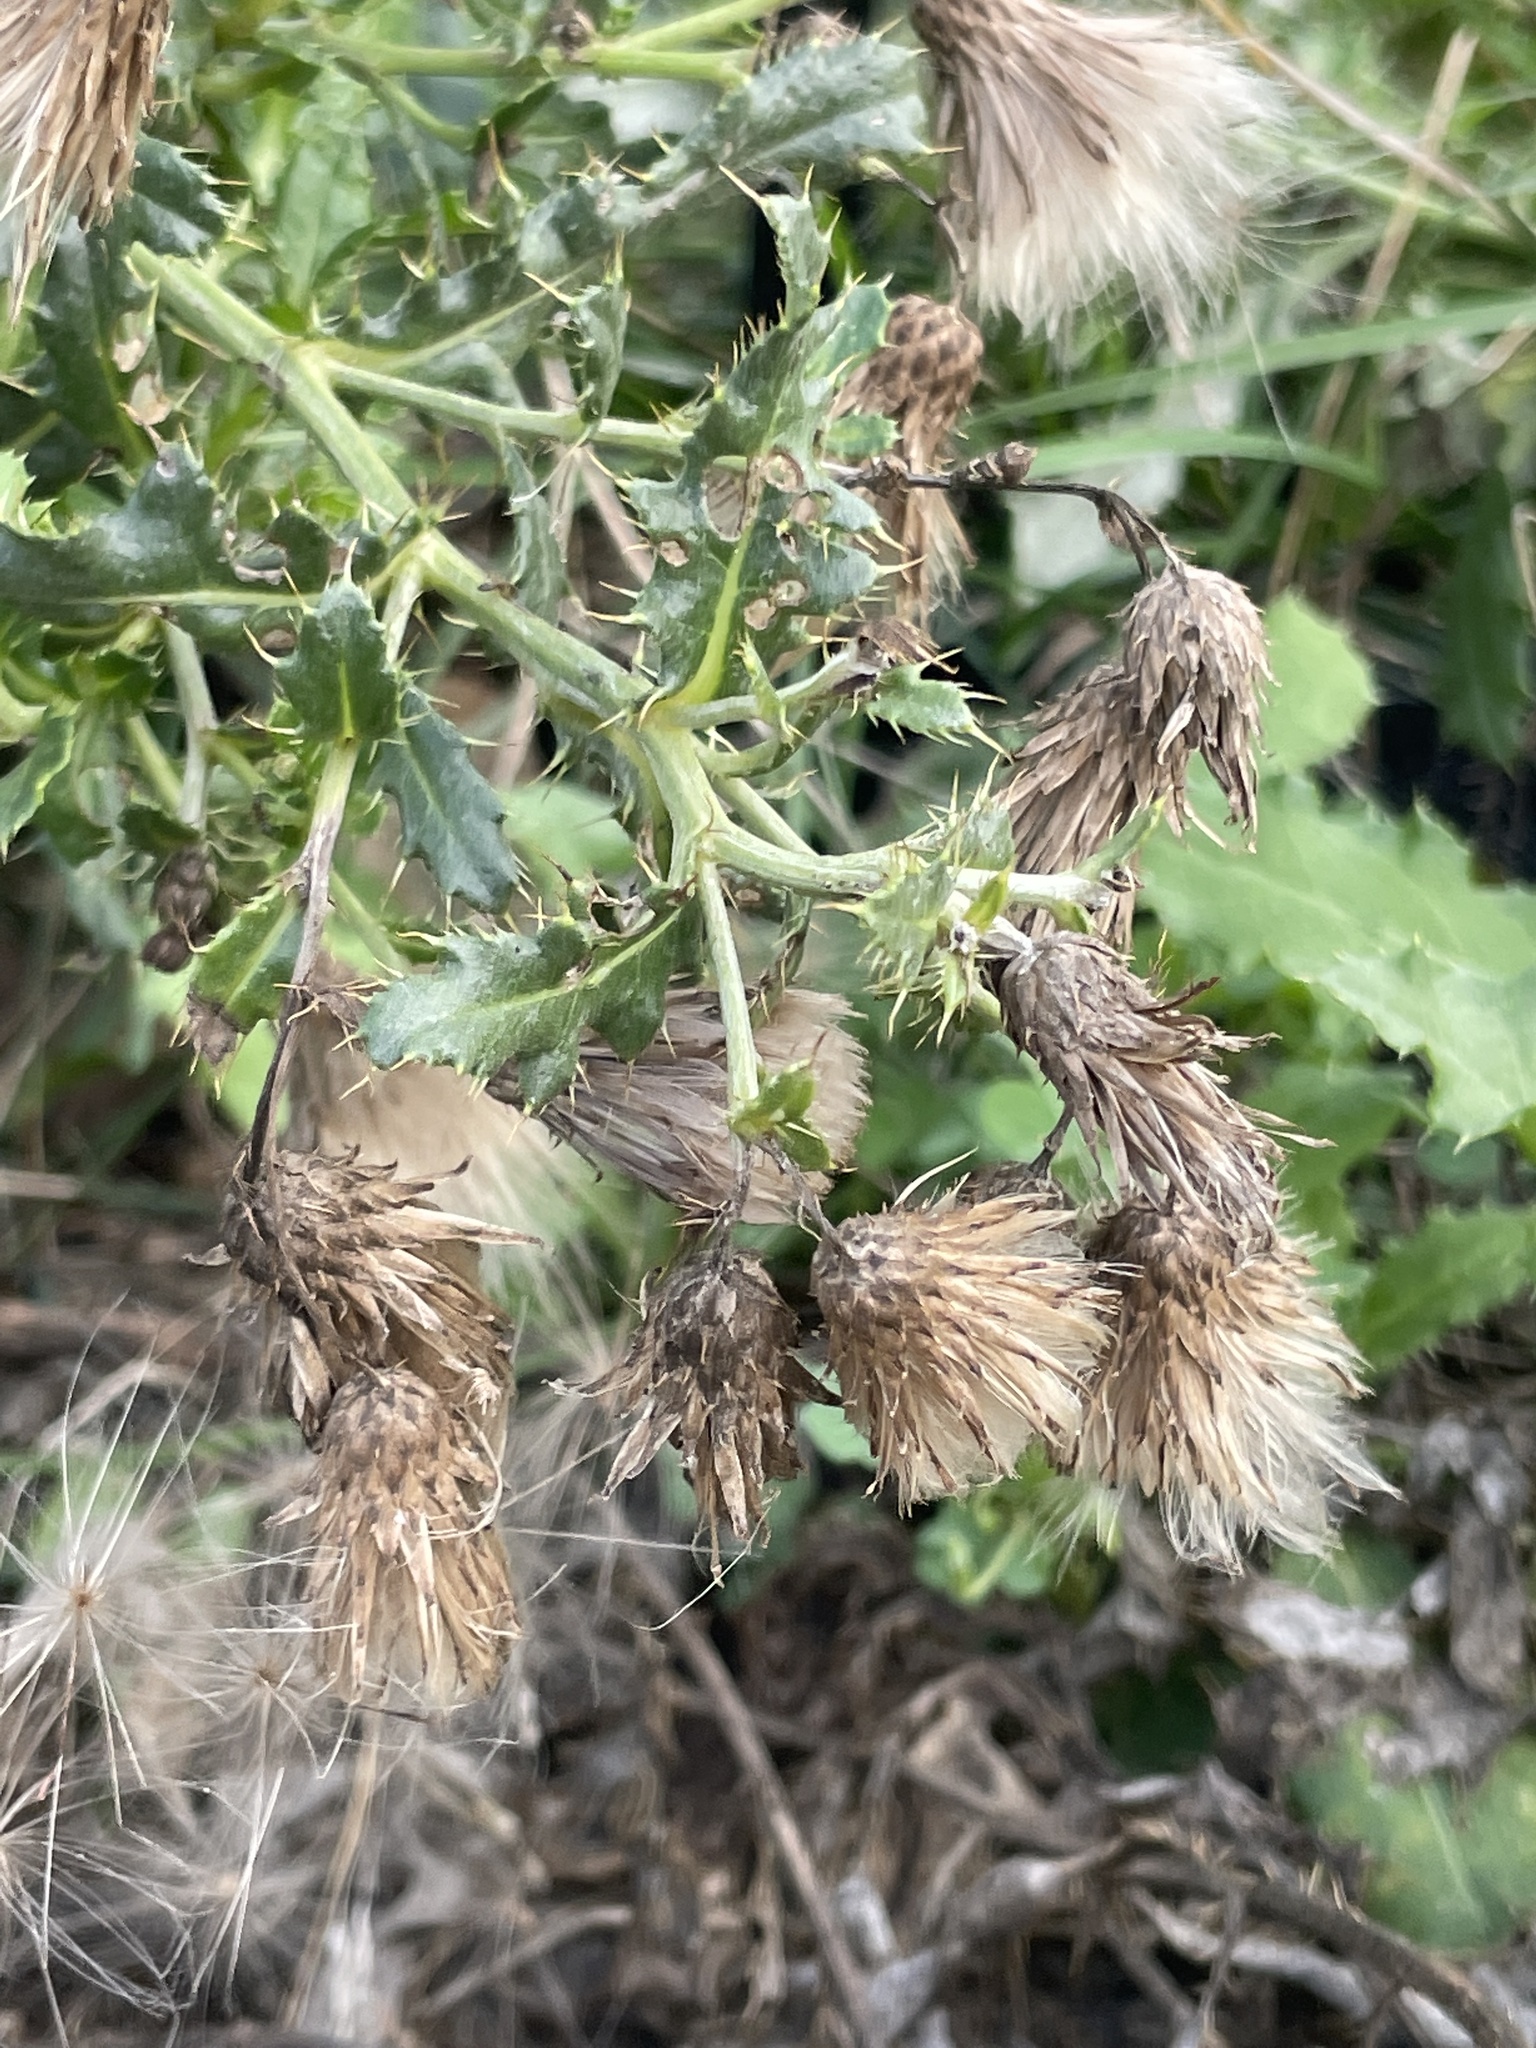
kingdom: Plantae
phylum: Tracheophyta
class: Magnoliopsida
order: Asterales
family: Asteraceae
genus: Cirsium
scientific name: Cirsium arvense
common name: Creeping thistle
